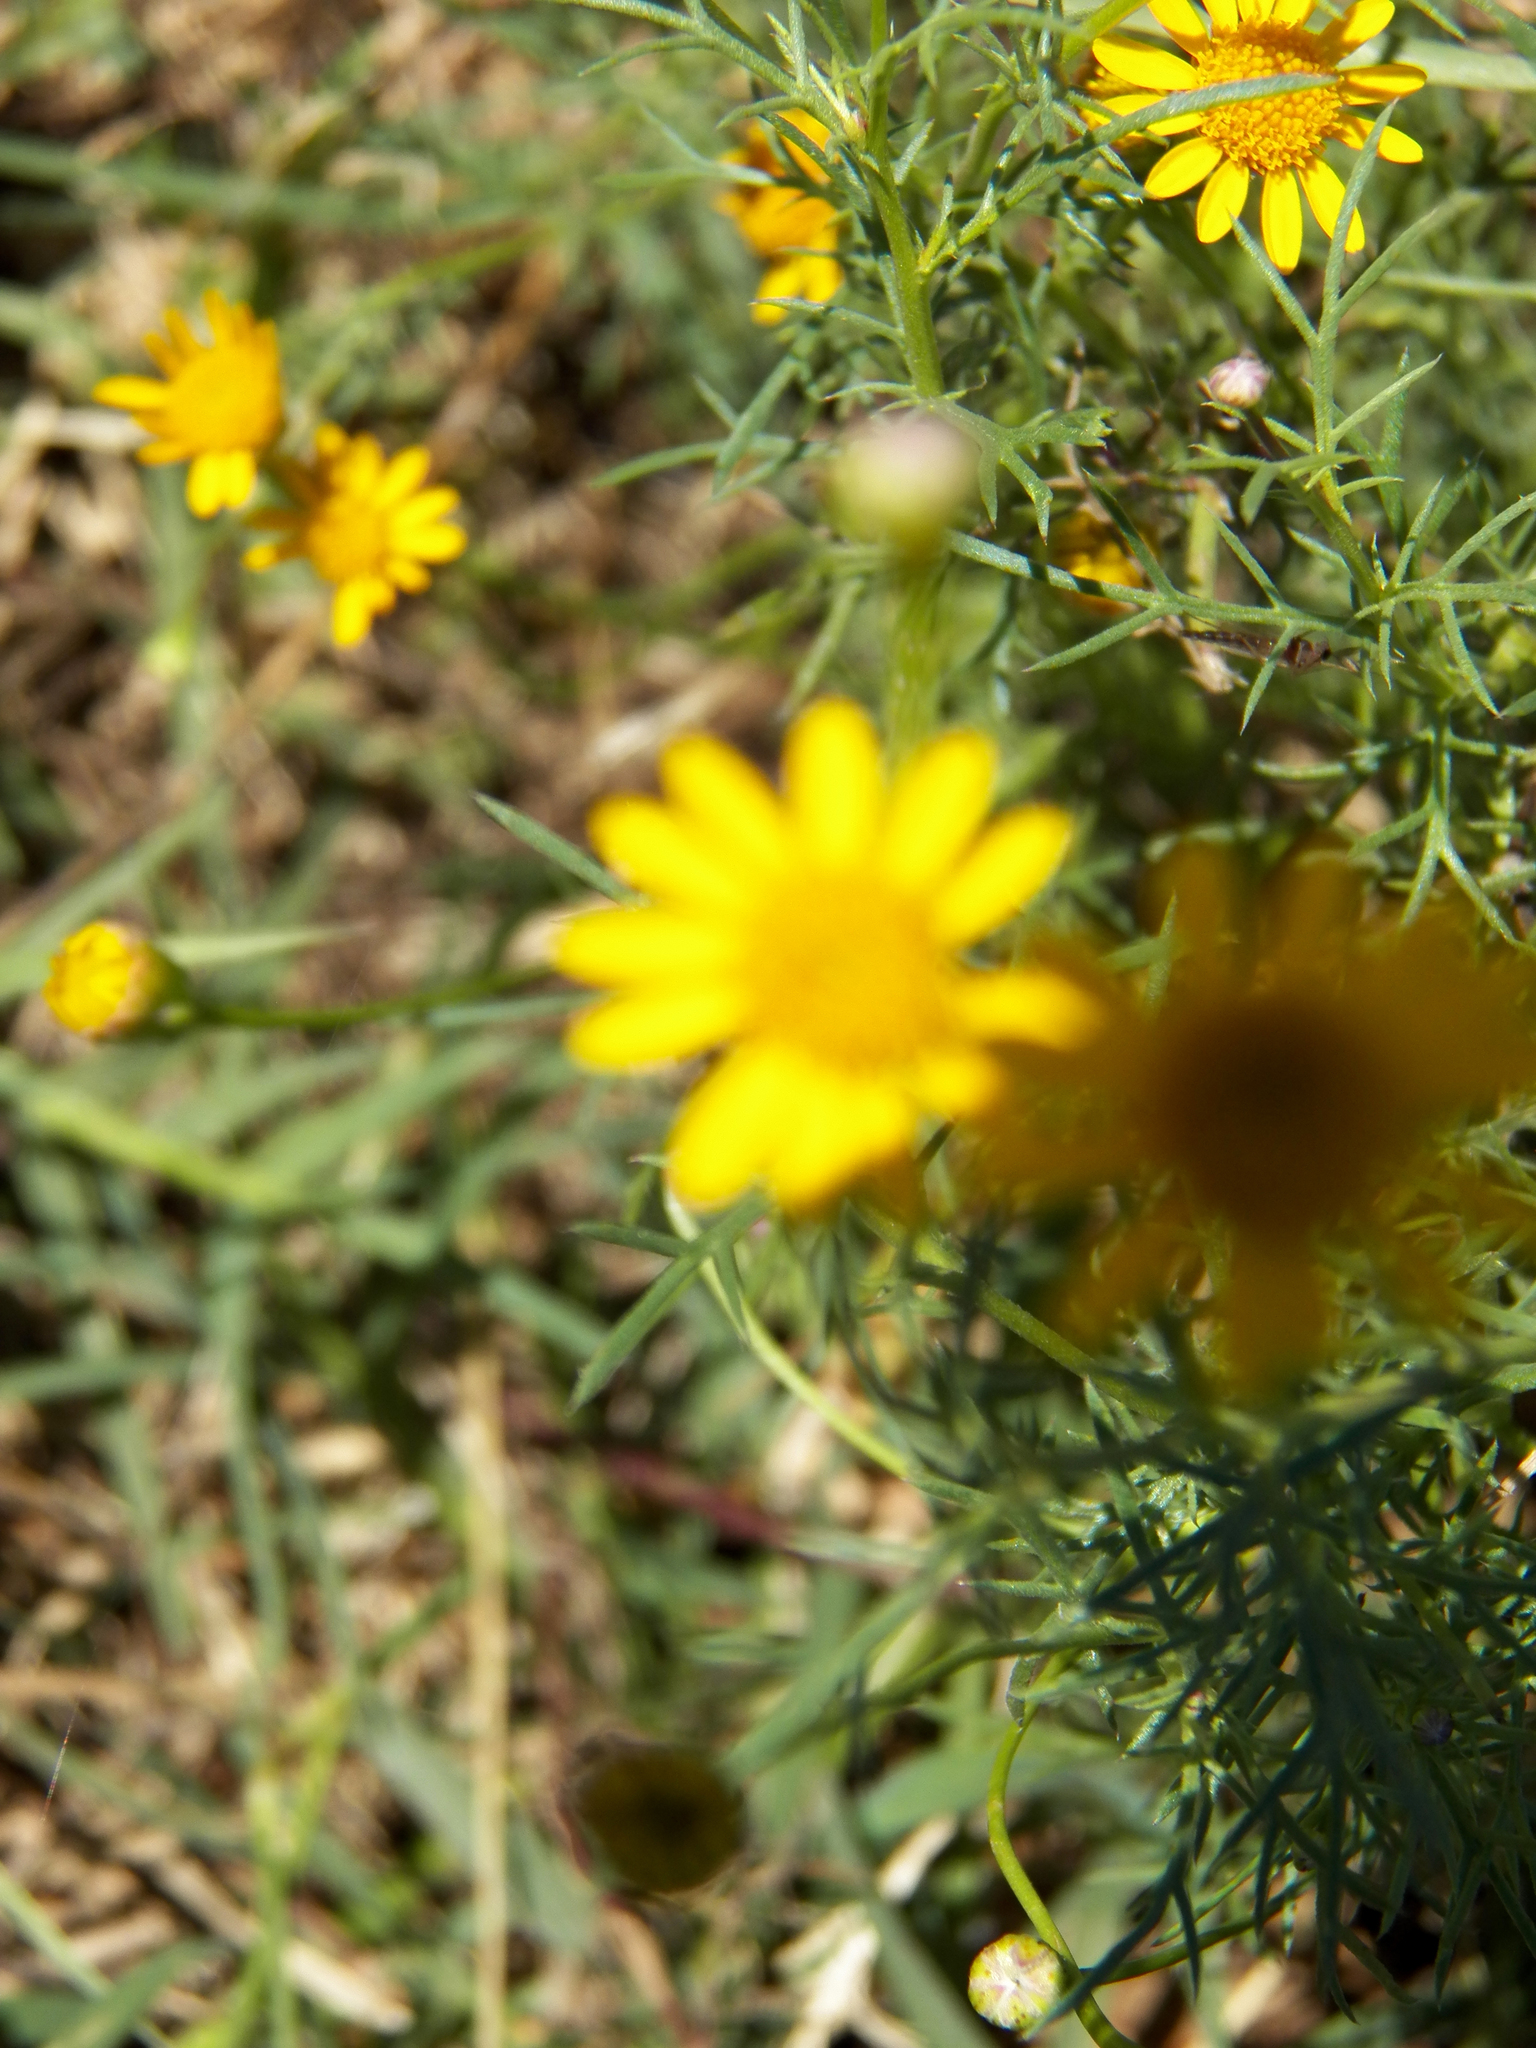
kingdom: Plantae
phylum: Tracheophyta
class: Magnoliopsida
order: Asterales
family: Asteraceae
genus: Thymophylla
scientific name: Thymophylla tenuiloba
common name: Dahlberg's daisy
